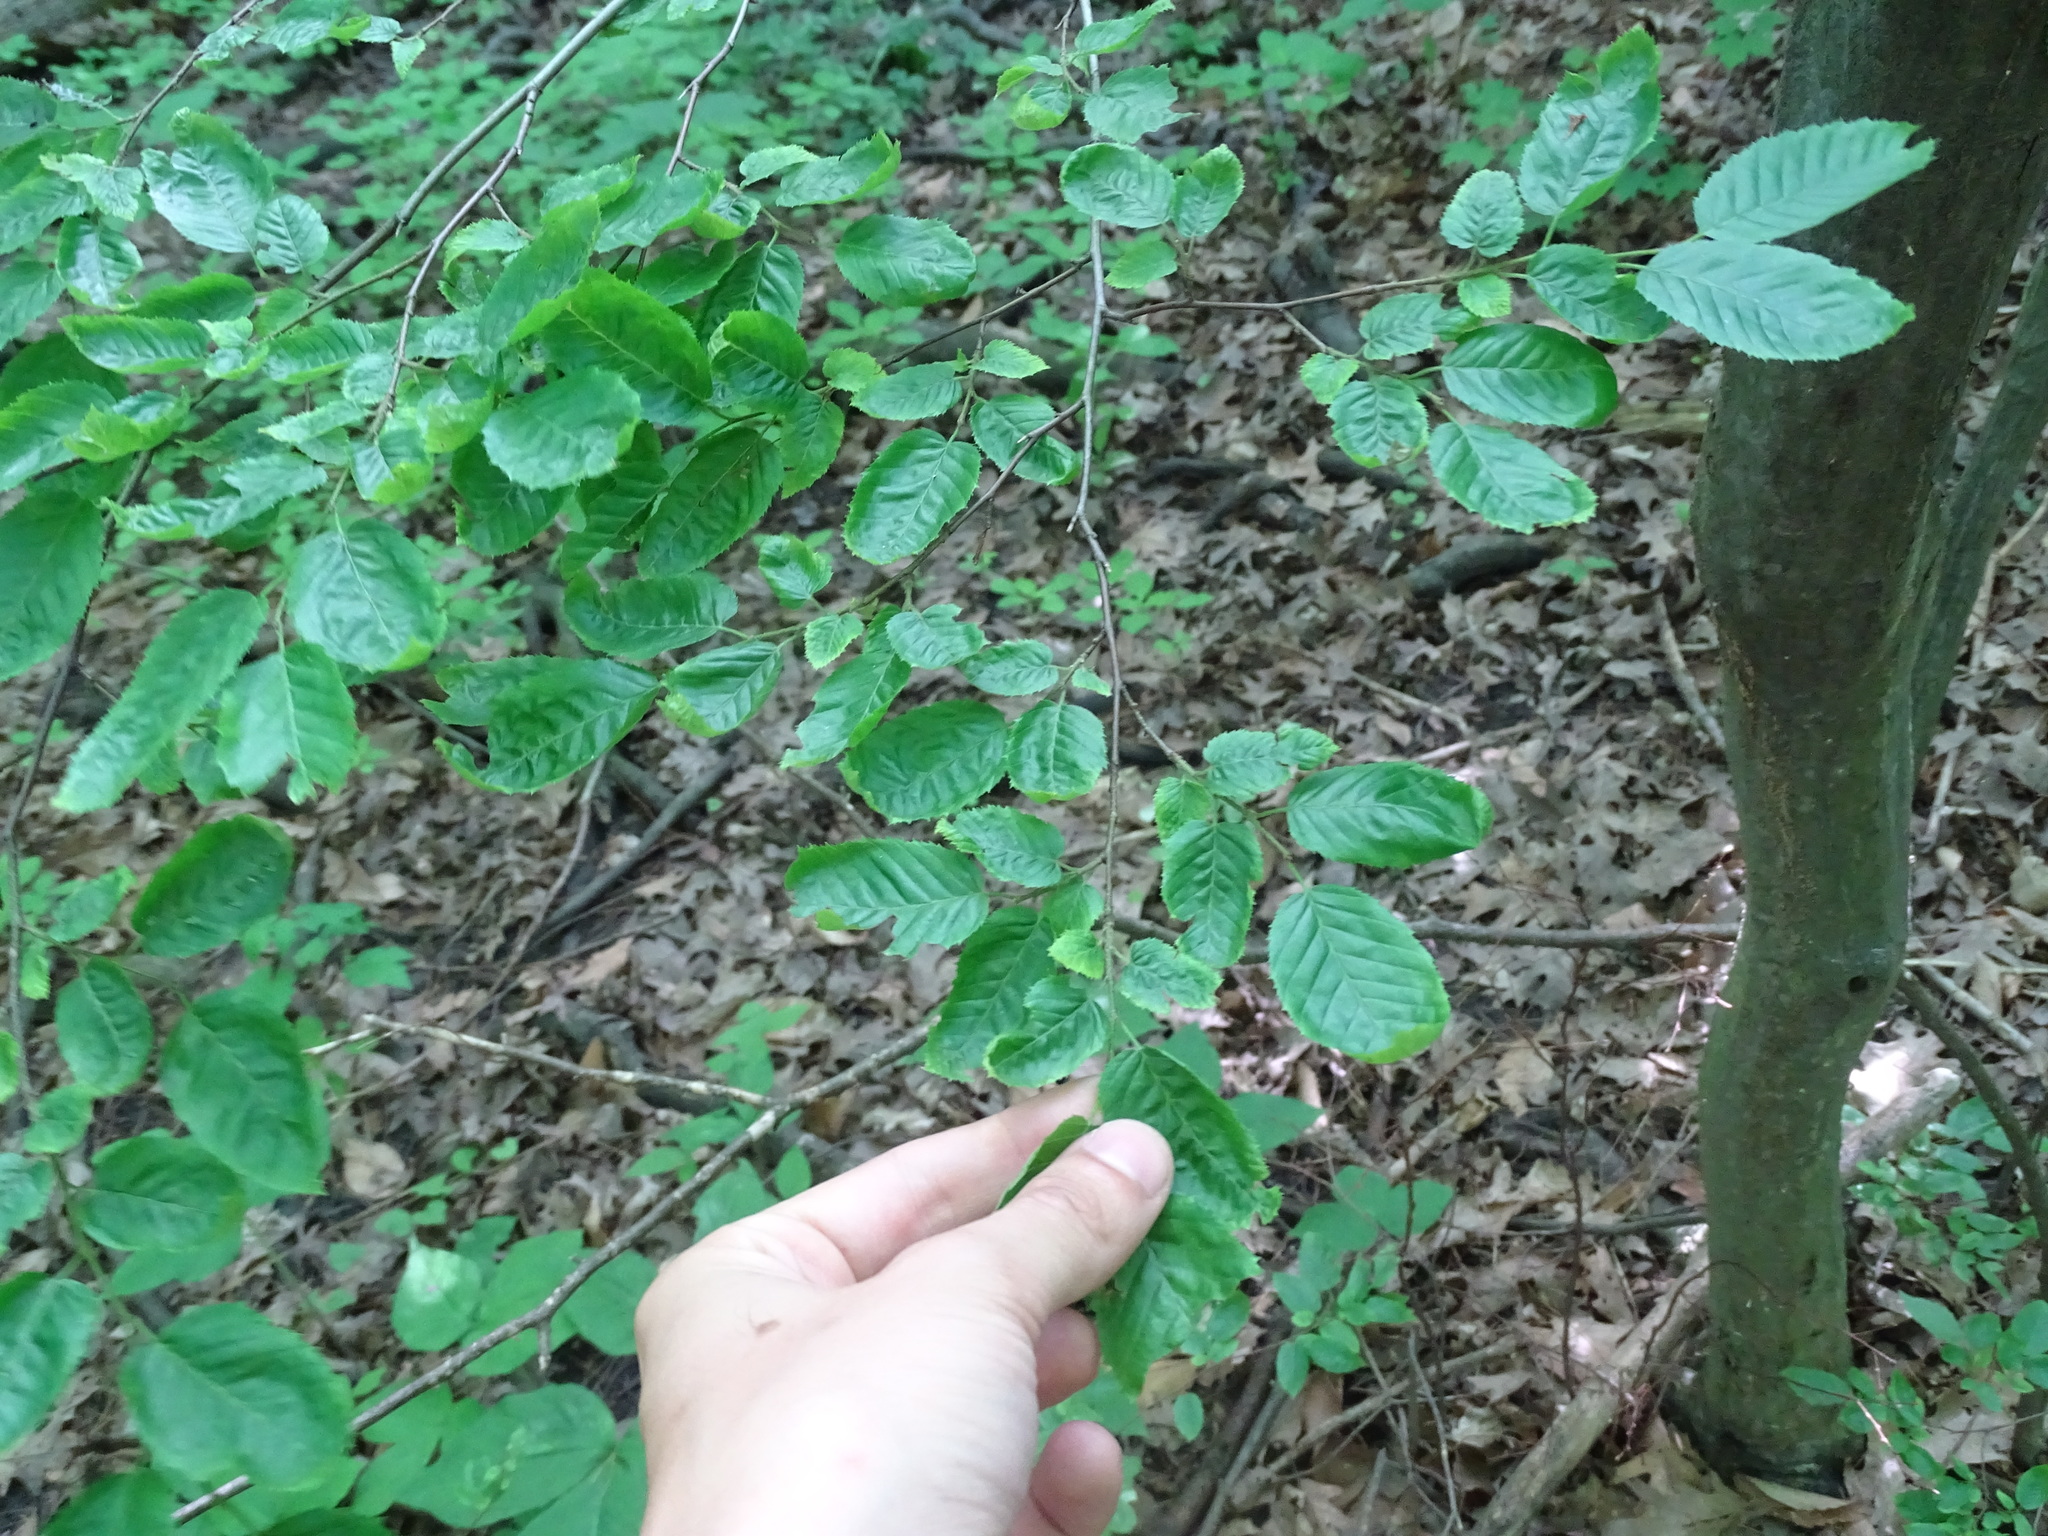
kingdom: Plantae
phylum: Tracheophyta
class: Magnoliopsida
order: Fagales
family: Betulaceae
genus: Carpinus
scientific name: Carpinus caroliniana
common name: American hornbeam
